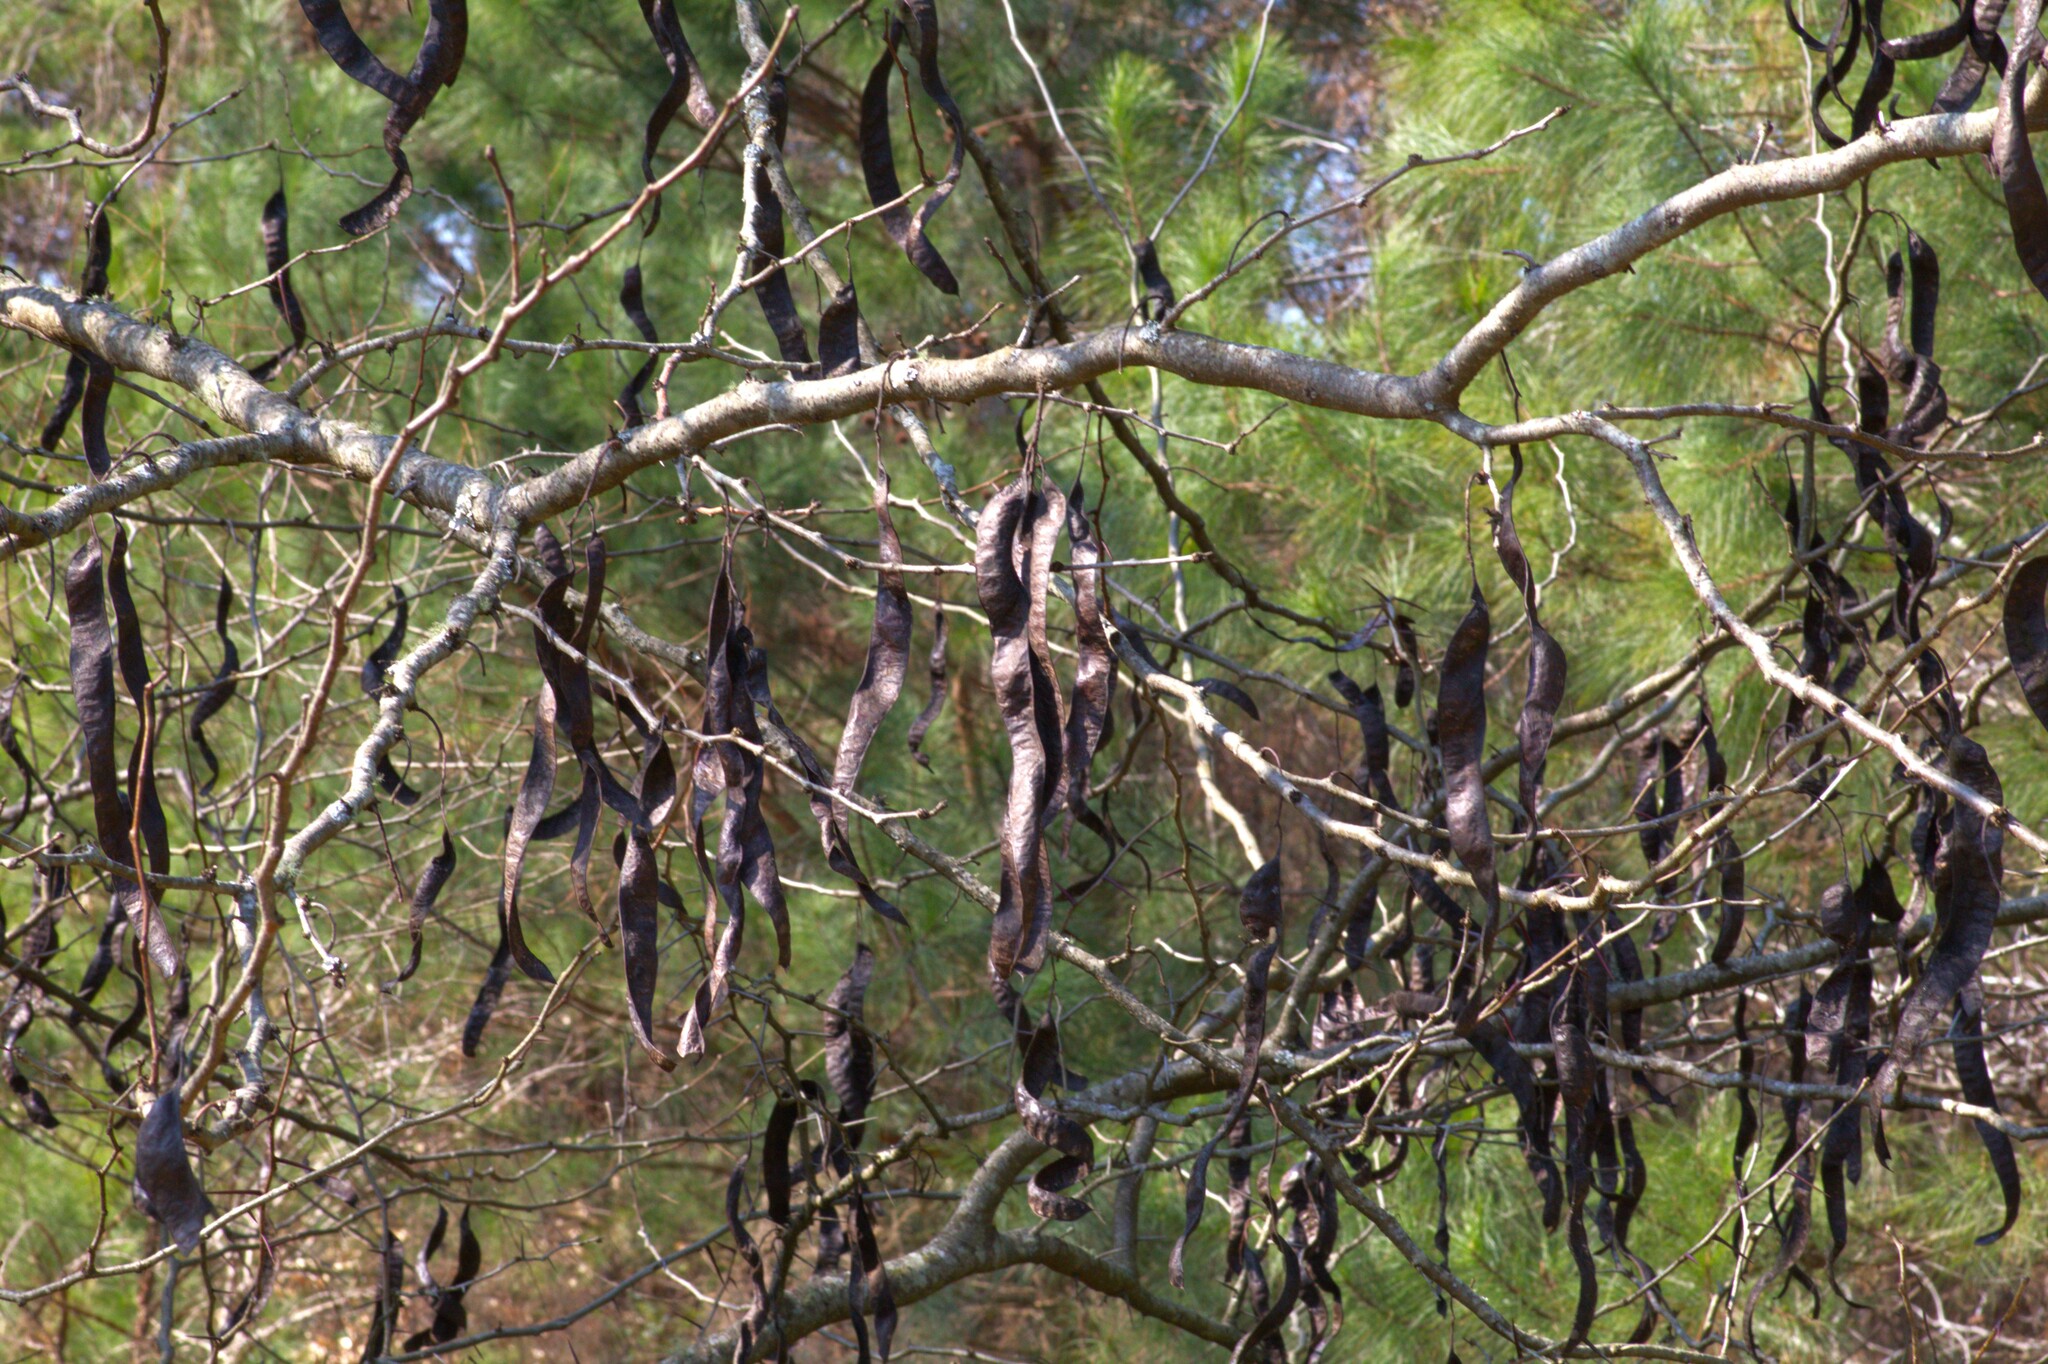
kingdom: Plantae
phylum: Tracheophyta
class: Magnoliopsida
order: Fabales
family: Fabaceae
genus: Gleditsia
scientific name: Gleditsia triacanthos
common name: Common honeylocust
